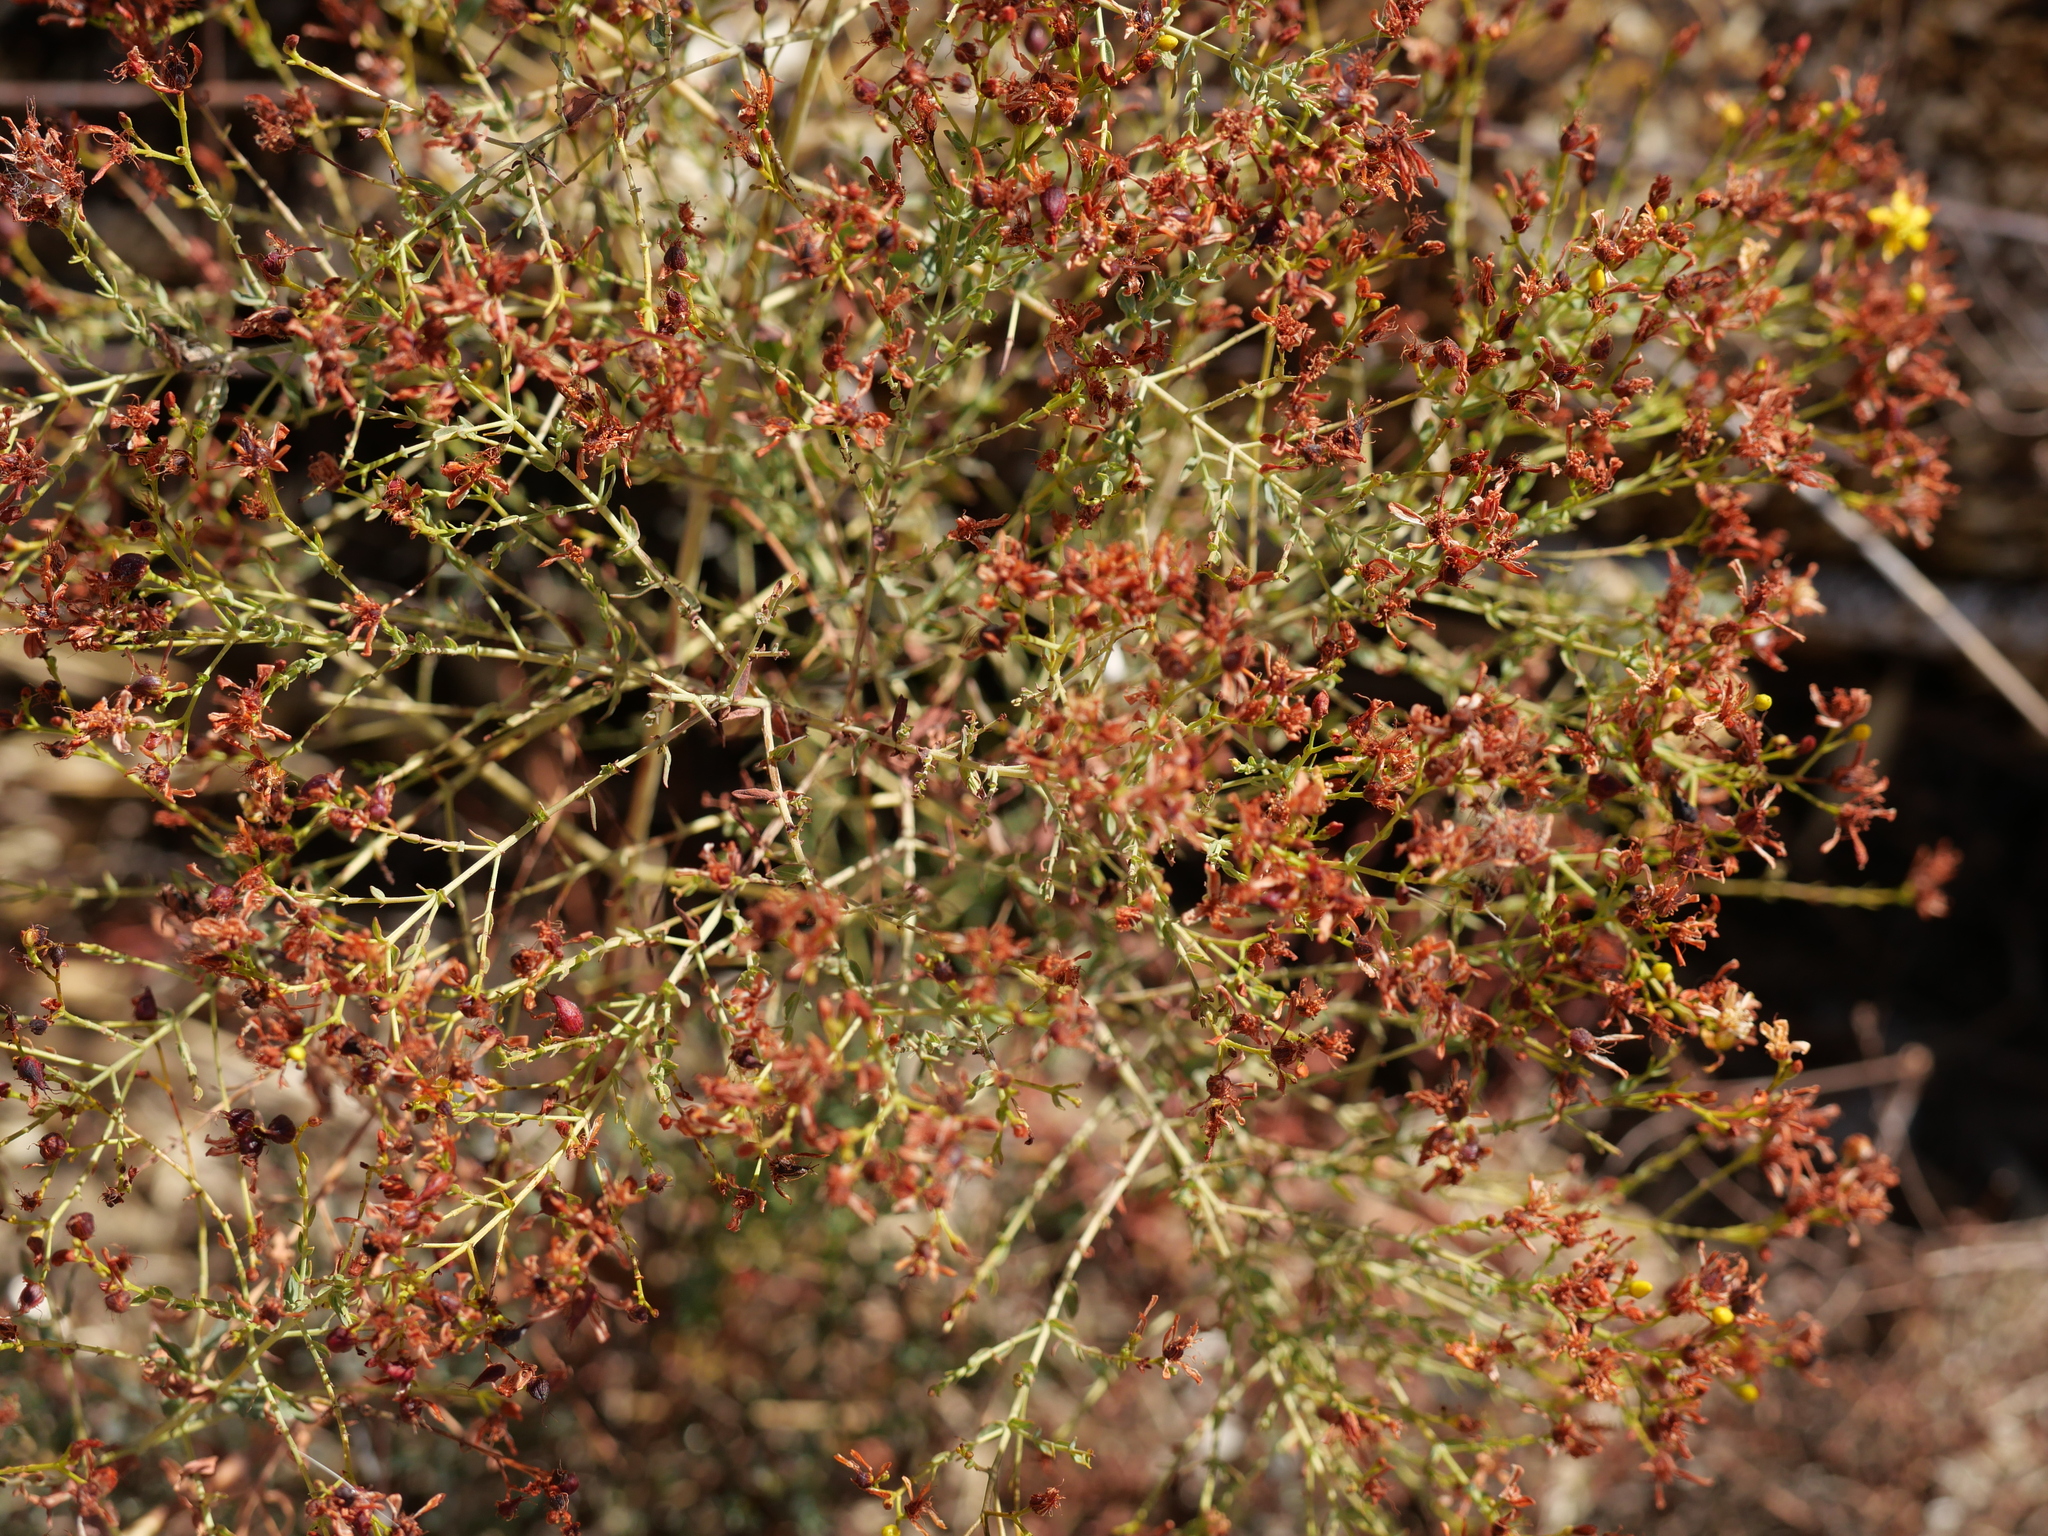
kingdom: Plantae
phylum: Tracheophyta
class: Magnoliopsida
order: Malpighiales
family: Hypericaceae
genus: Hypericum
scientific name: Hypericum triquetrifolium
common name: Tangled hypericum
